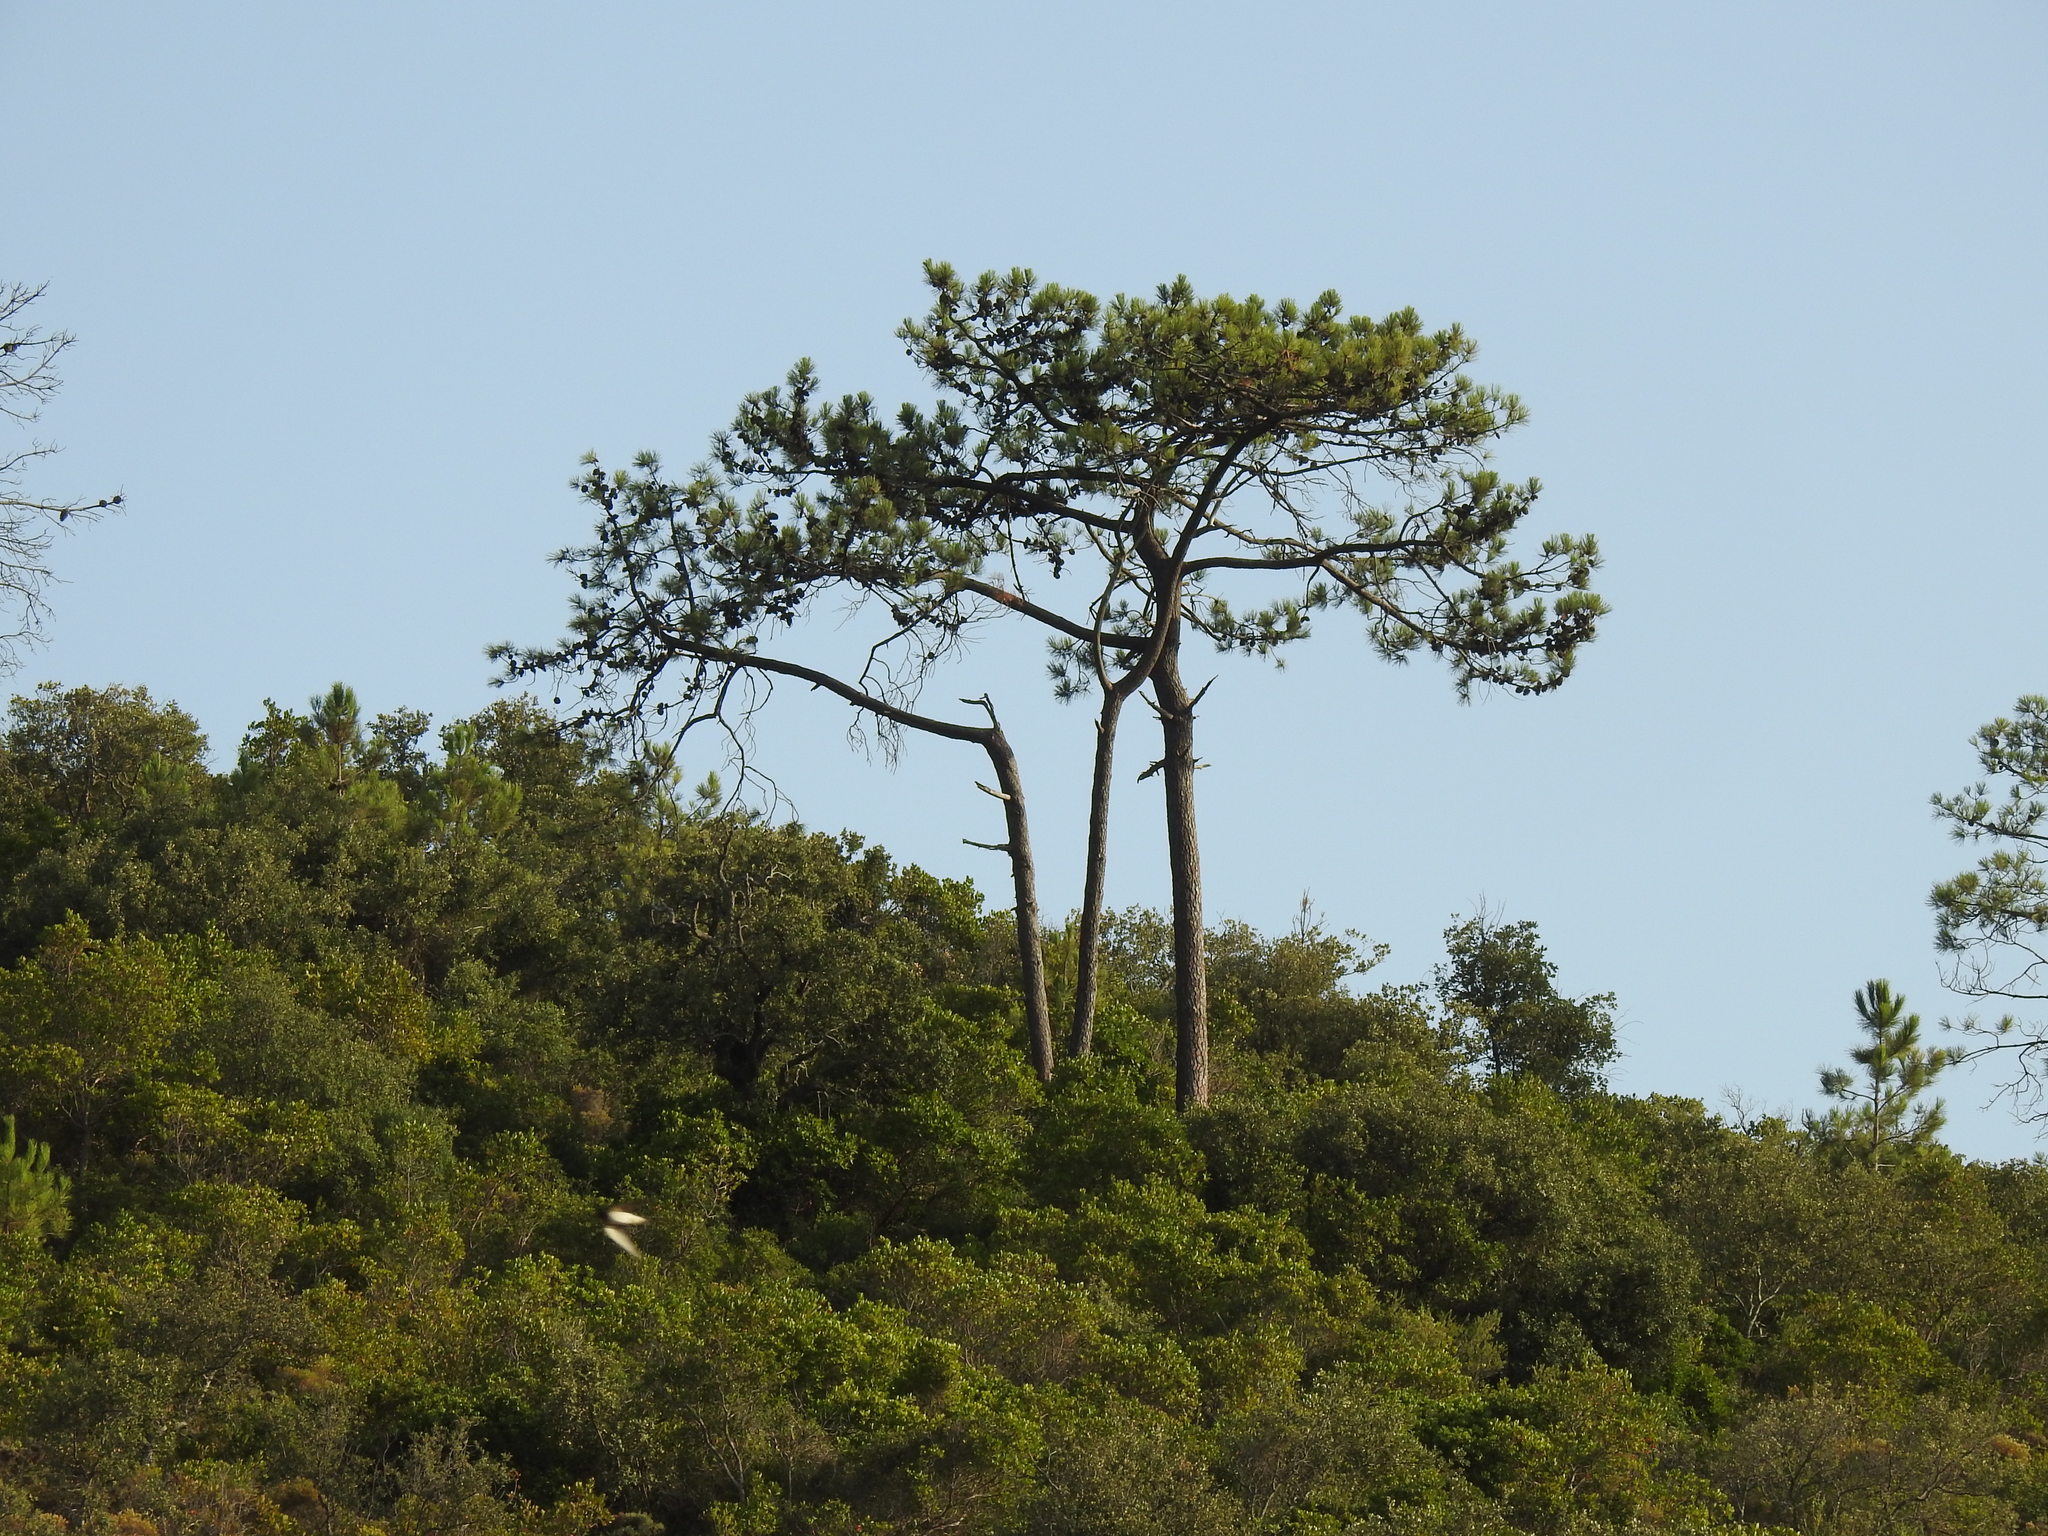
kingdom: Plantae
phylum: Tracheophyta
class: Pinopsida
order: Pinales
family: Pinaceae
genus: Pinus
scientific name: Pinus pinaster
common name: Maritime pine
